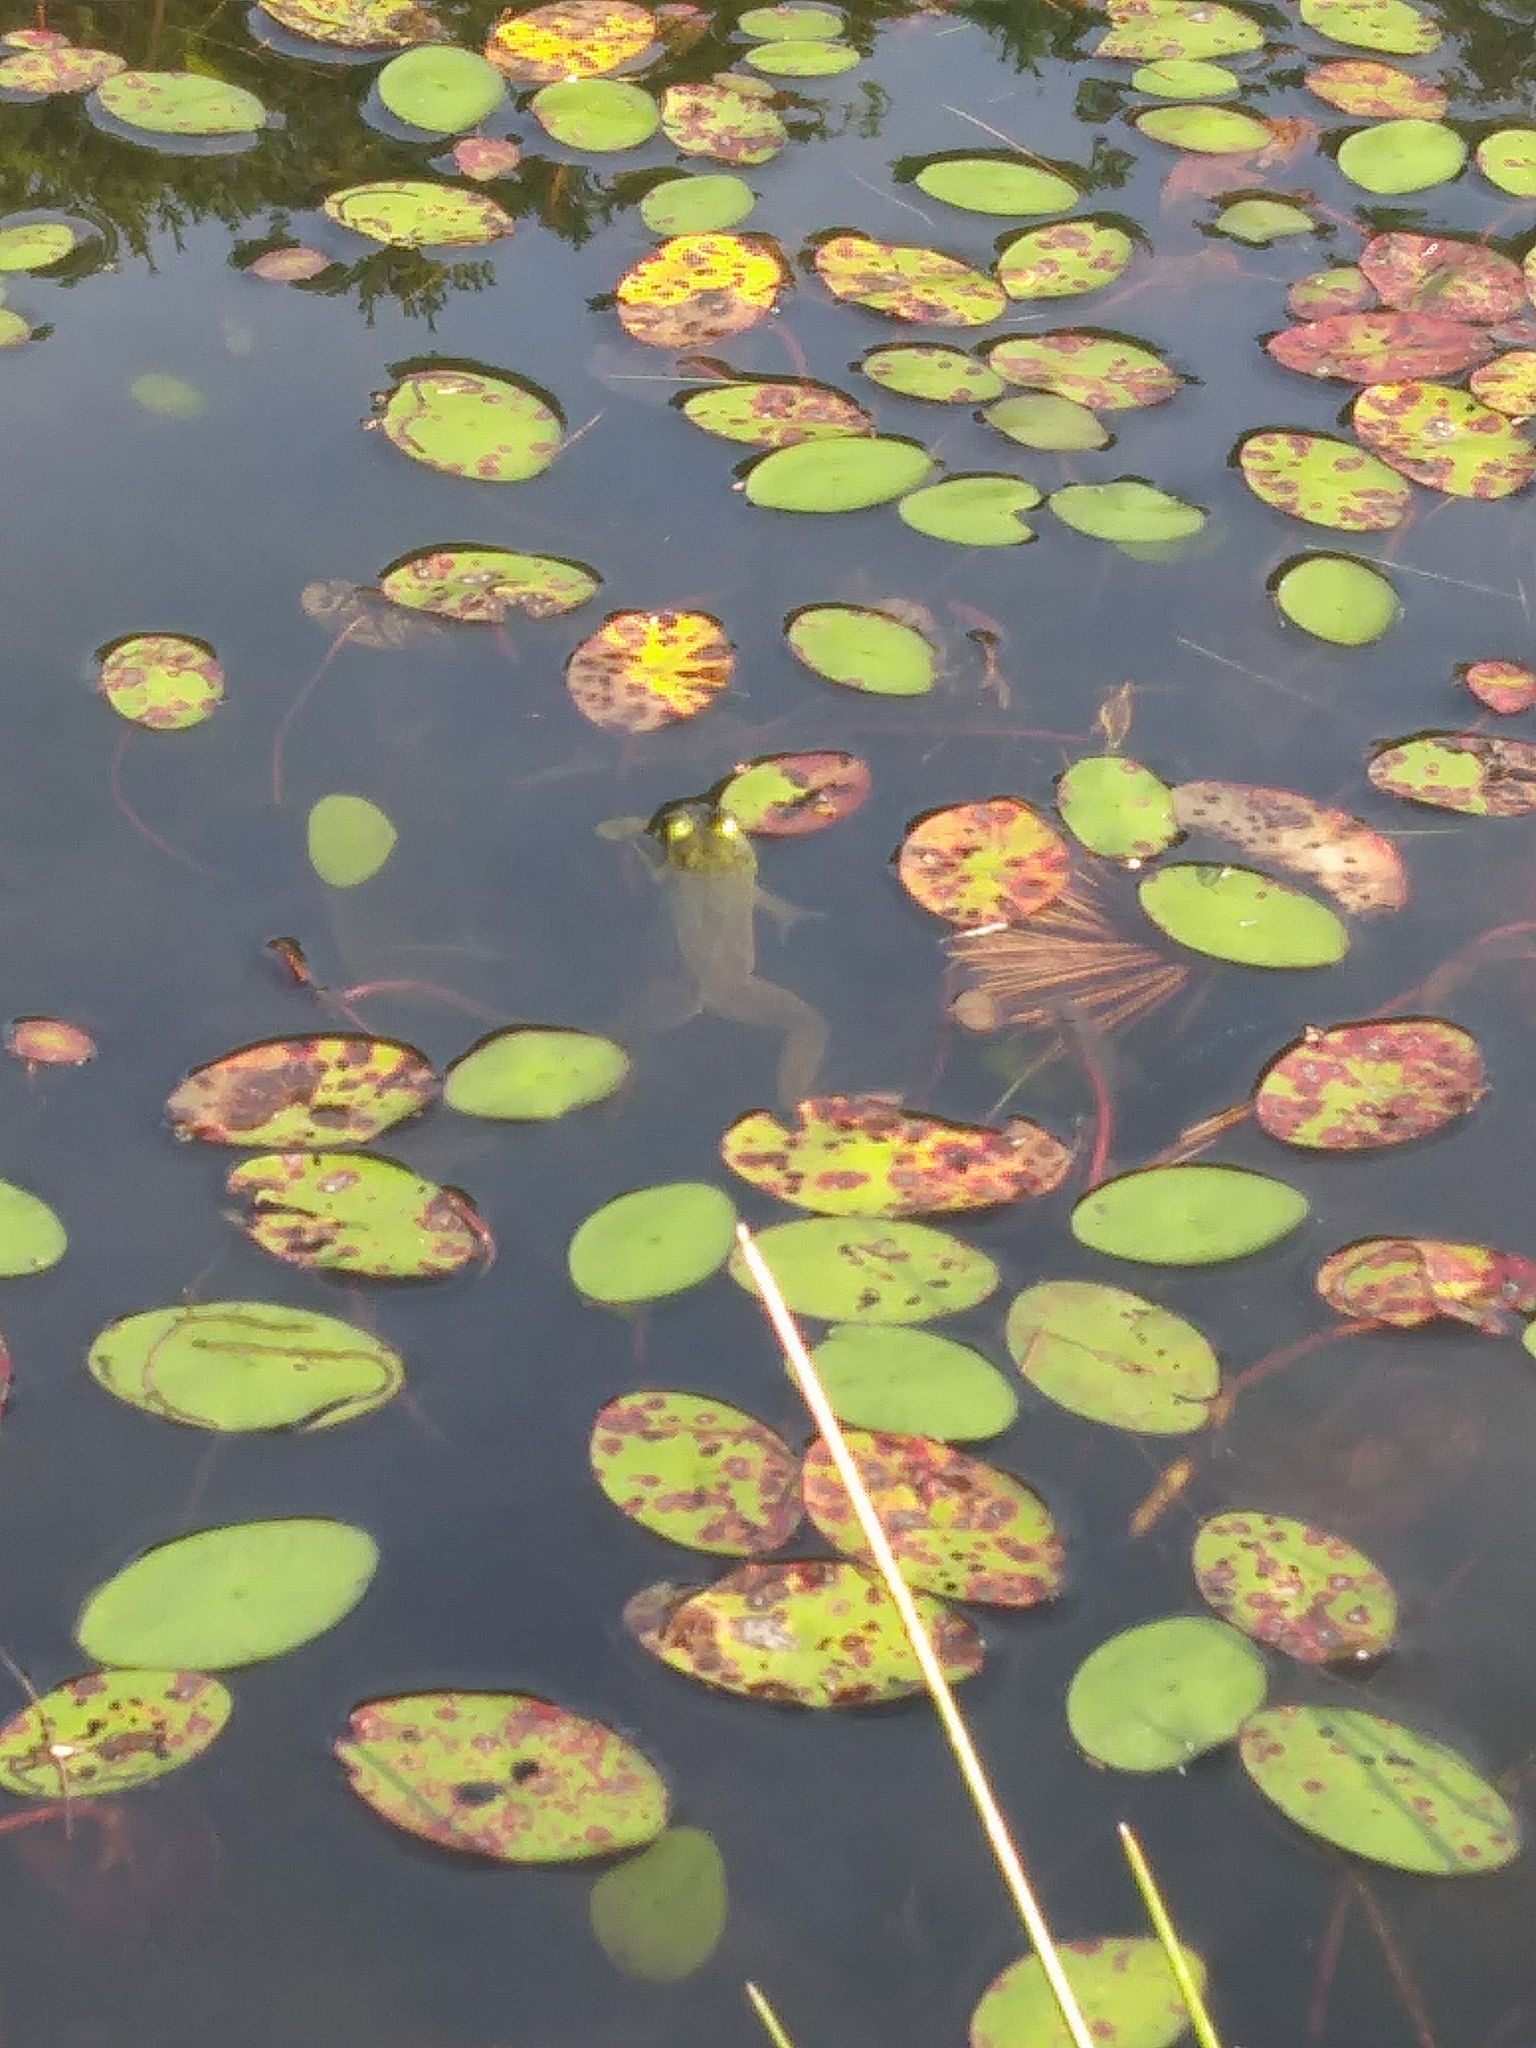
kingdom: Animalia
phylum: Chordata
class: Amphibia
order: Anura
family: Ranidae
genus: Lithobates
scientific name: Lithobates catesbeianus
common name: American bullfrog
